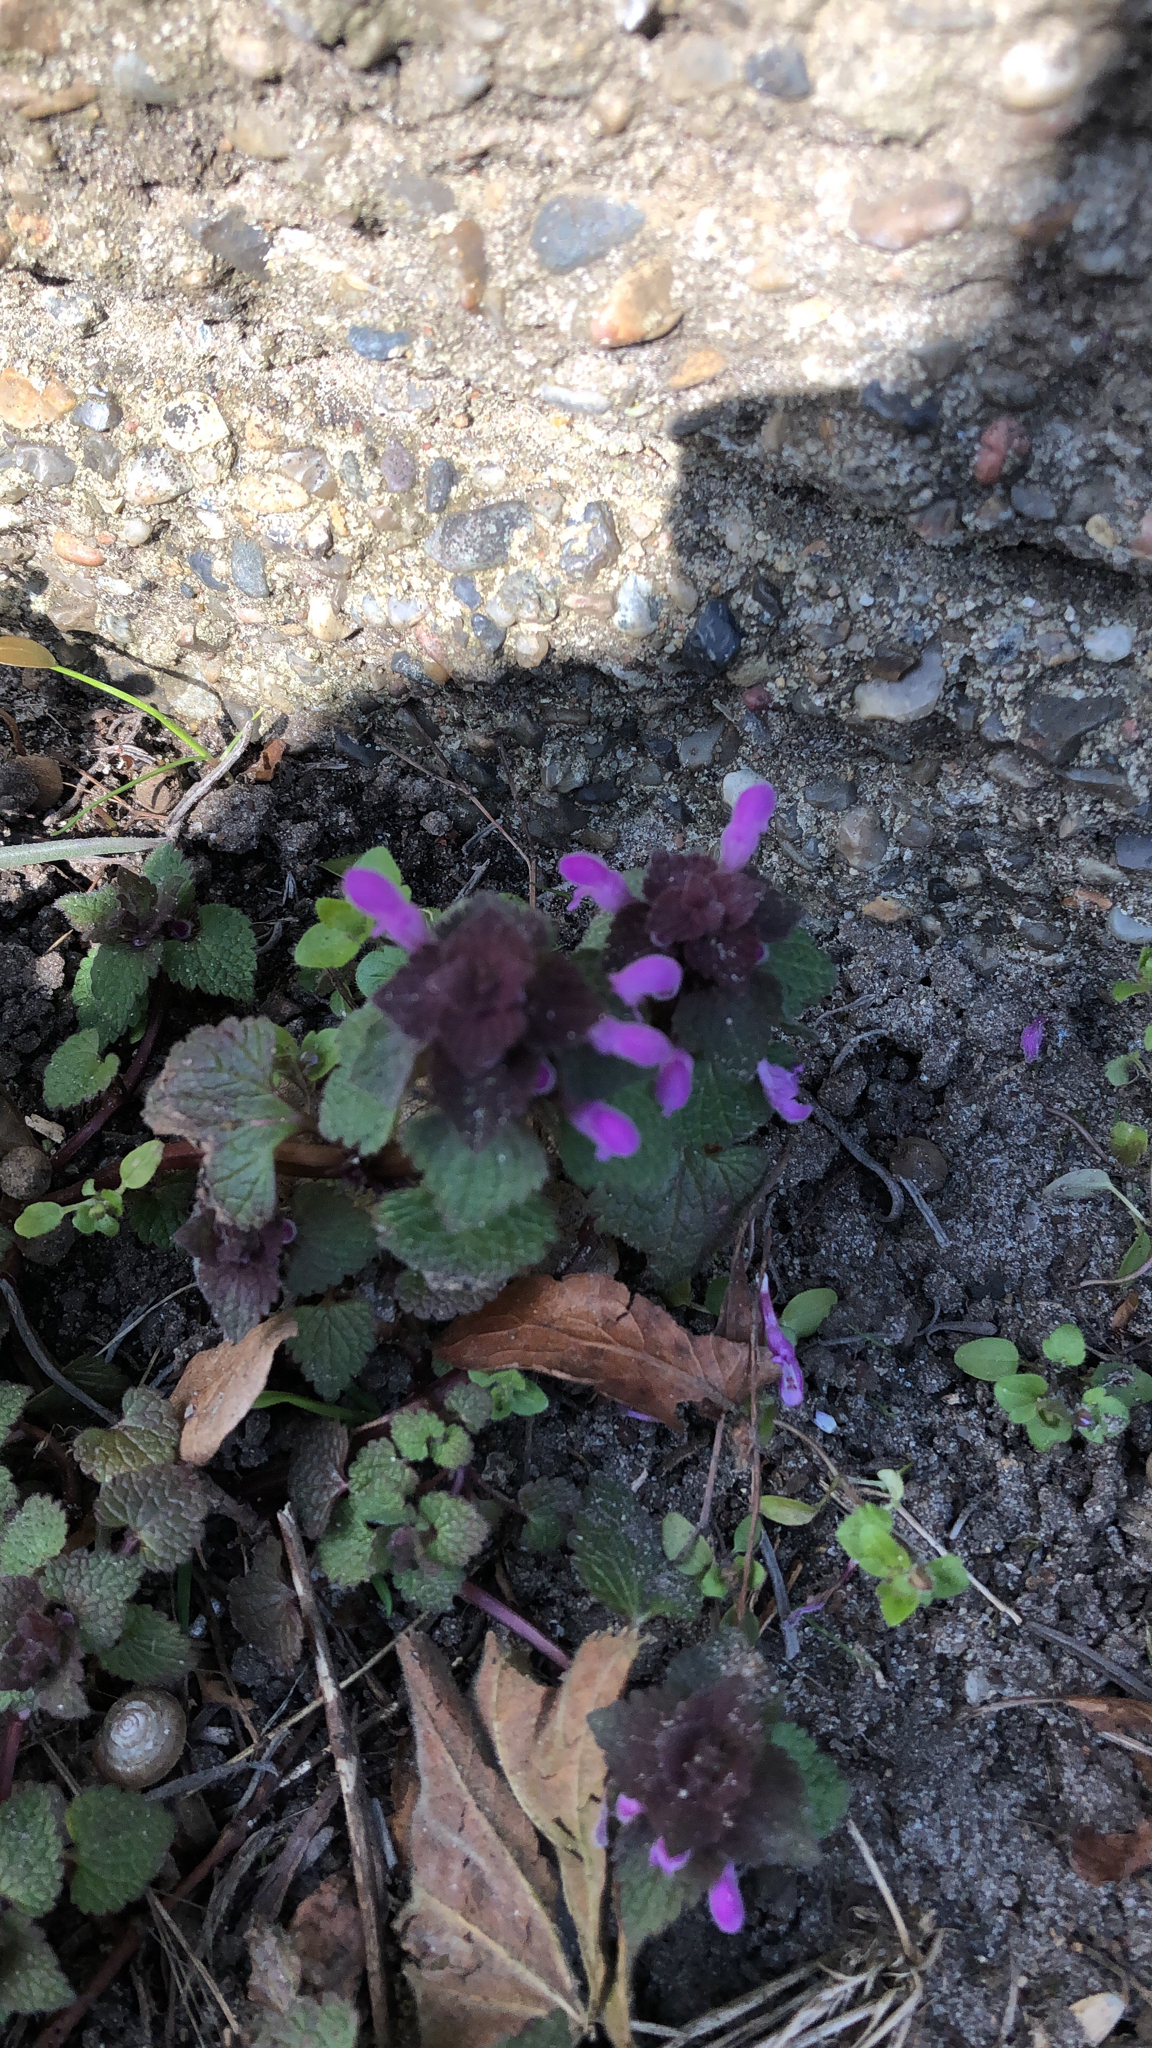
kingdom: Plantae
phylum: Tracheophyta
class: Magnoliopsida
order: Lamiales
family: Lamiaceae
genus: Lamium
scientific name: Lamium purpureum
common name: Red dead-nettle
